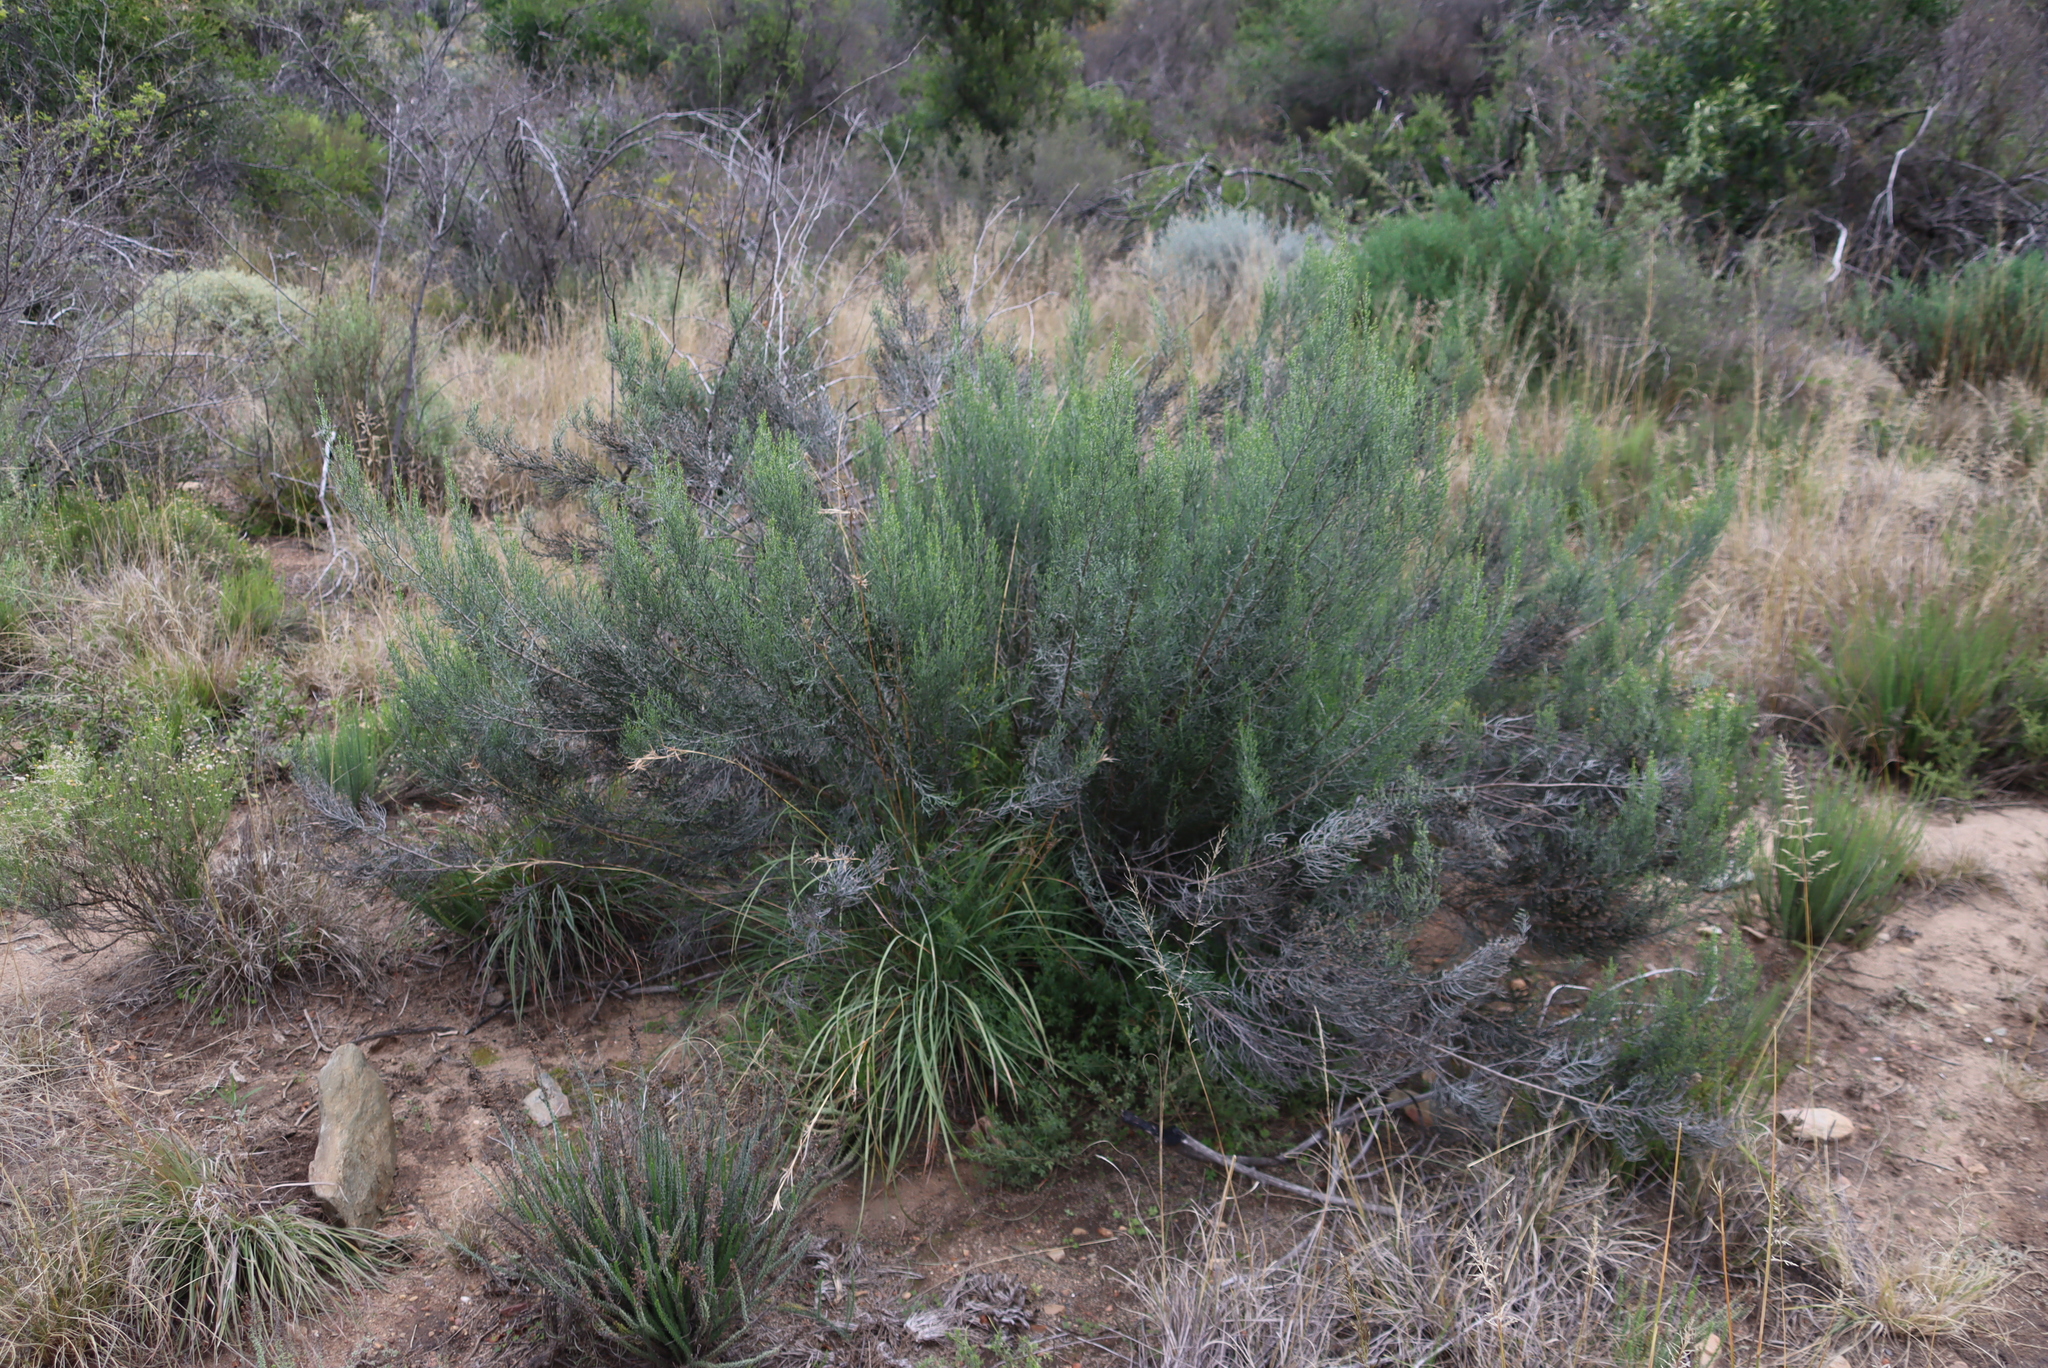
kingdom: Plantae
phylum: Tracheophyta
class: Magnoliopsida
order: Asterales
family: Asteraceae
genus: Dicerothamnus
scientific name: Dicerothamnus rhinocerotis
